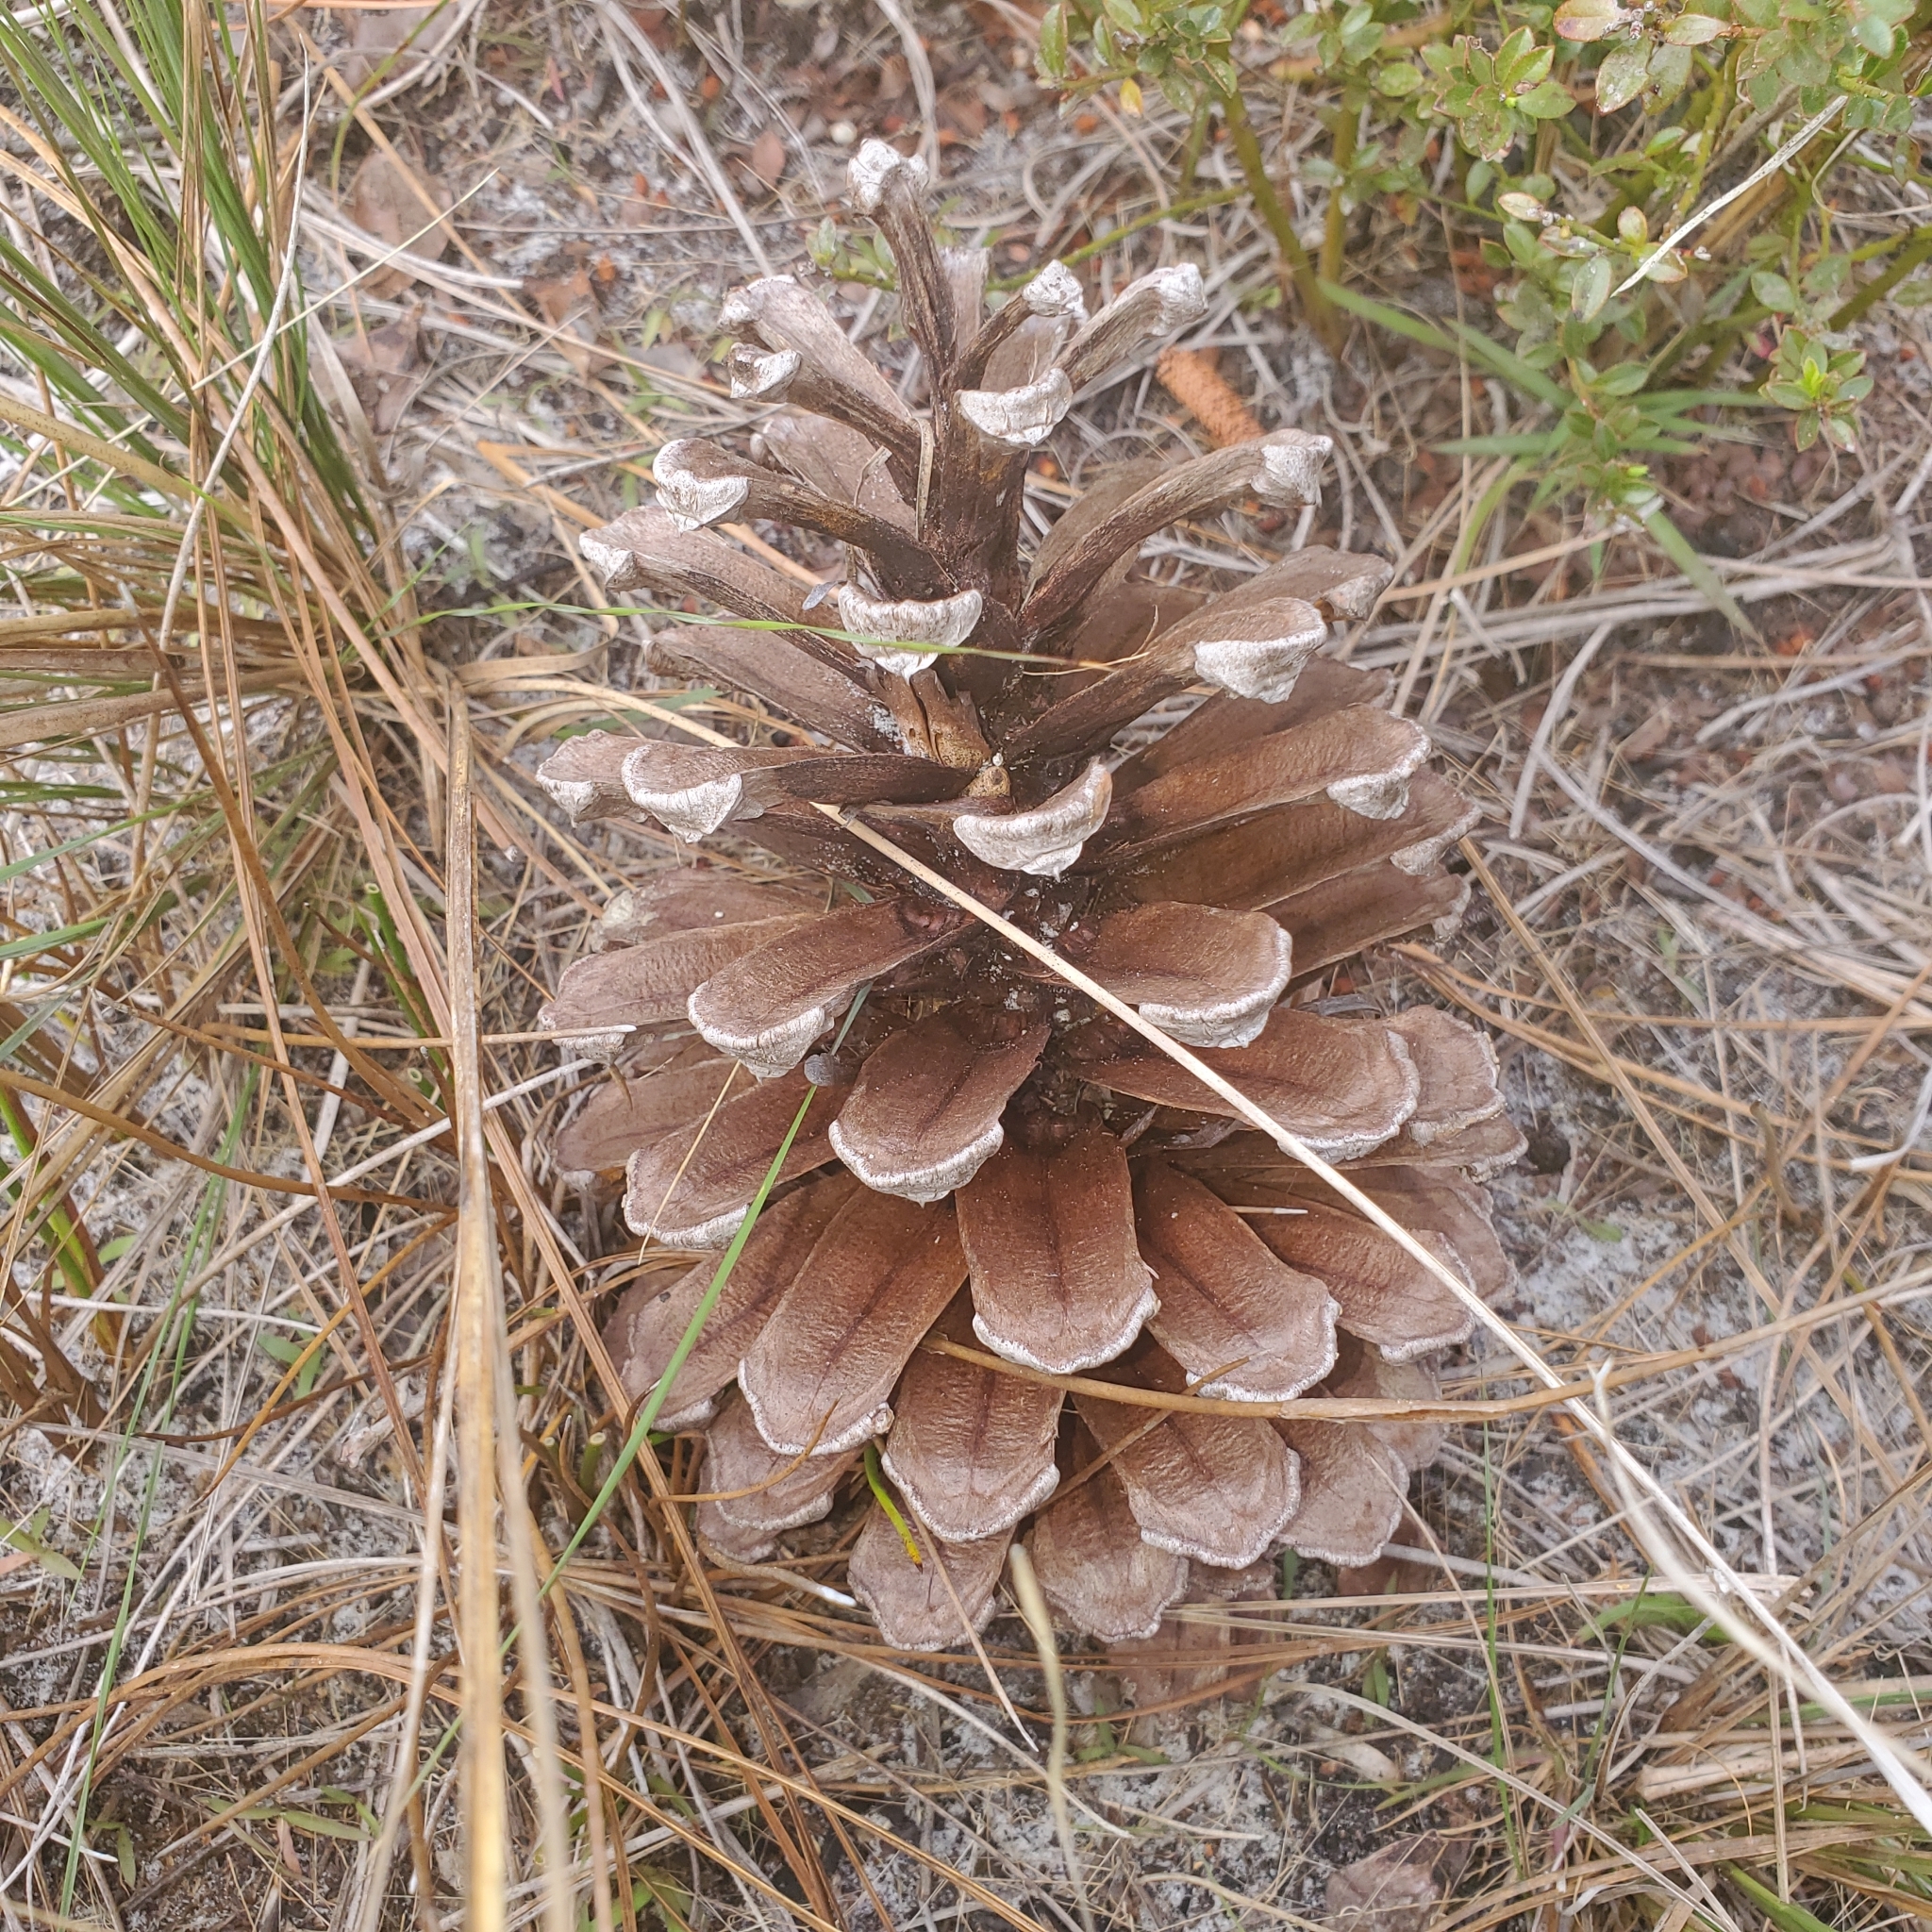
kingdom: Plantae
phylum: Tracheophyta
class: Pinopsida
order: Pinales
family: Pinaceae
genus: Pinus
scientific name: Pinus palustris
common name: Longleaf pine
